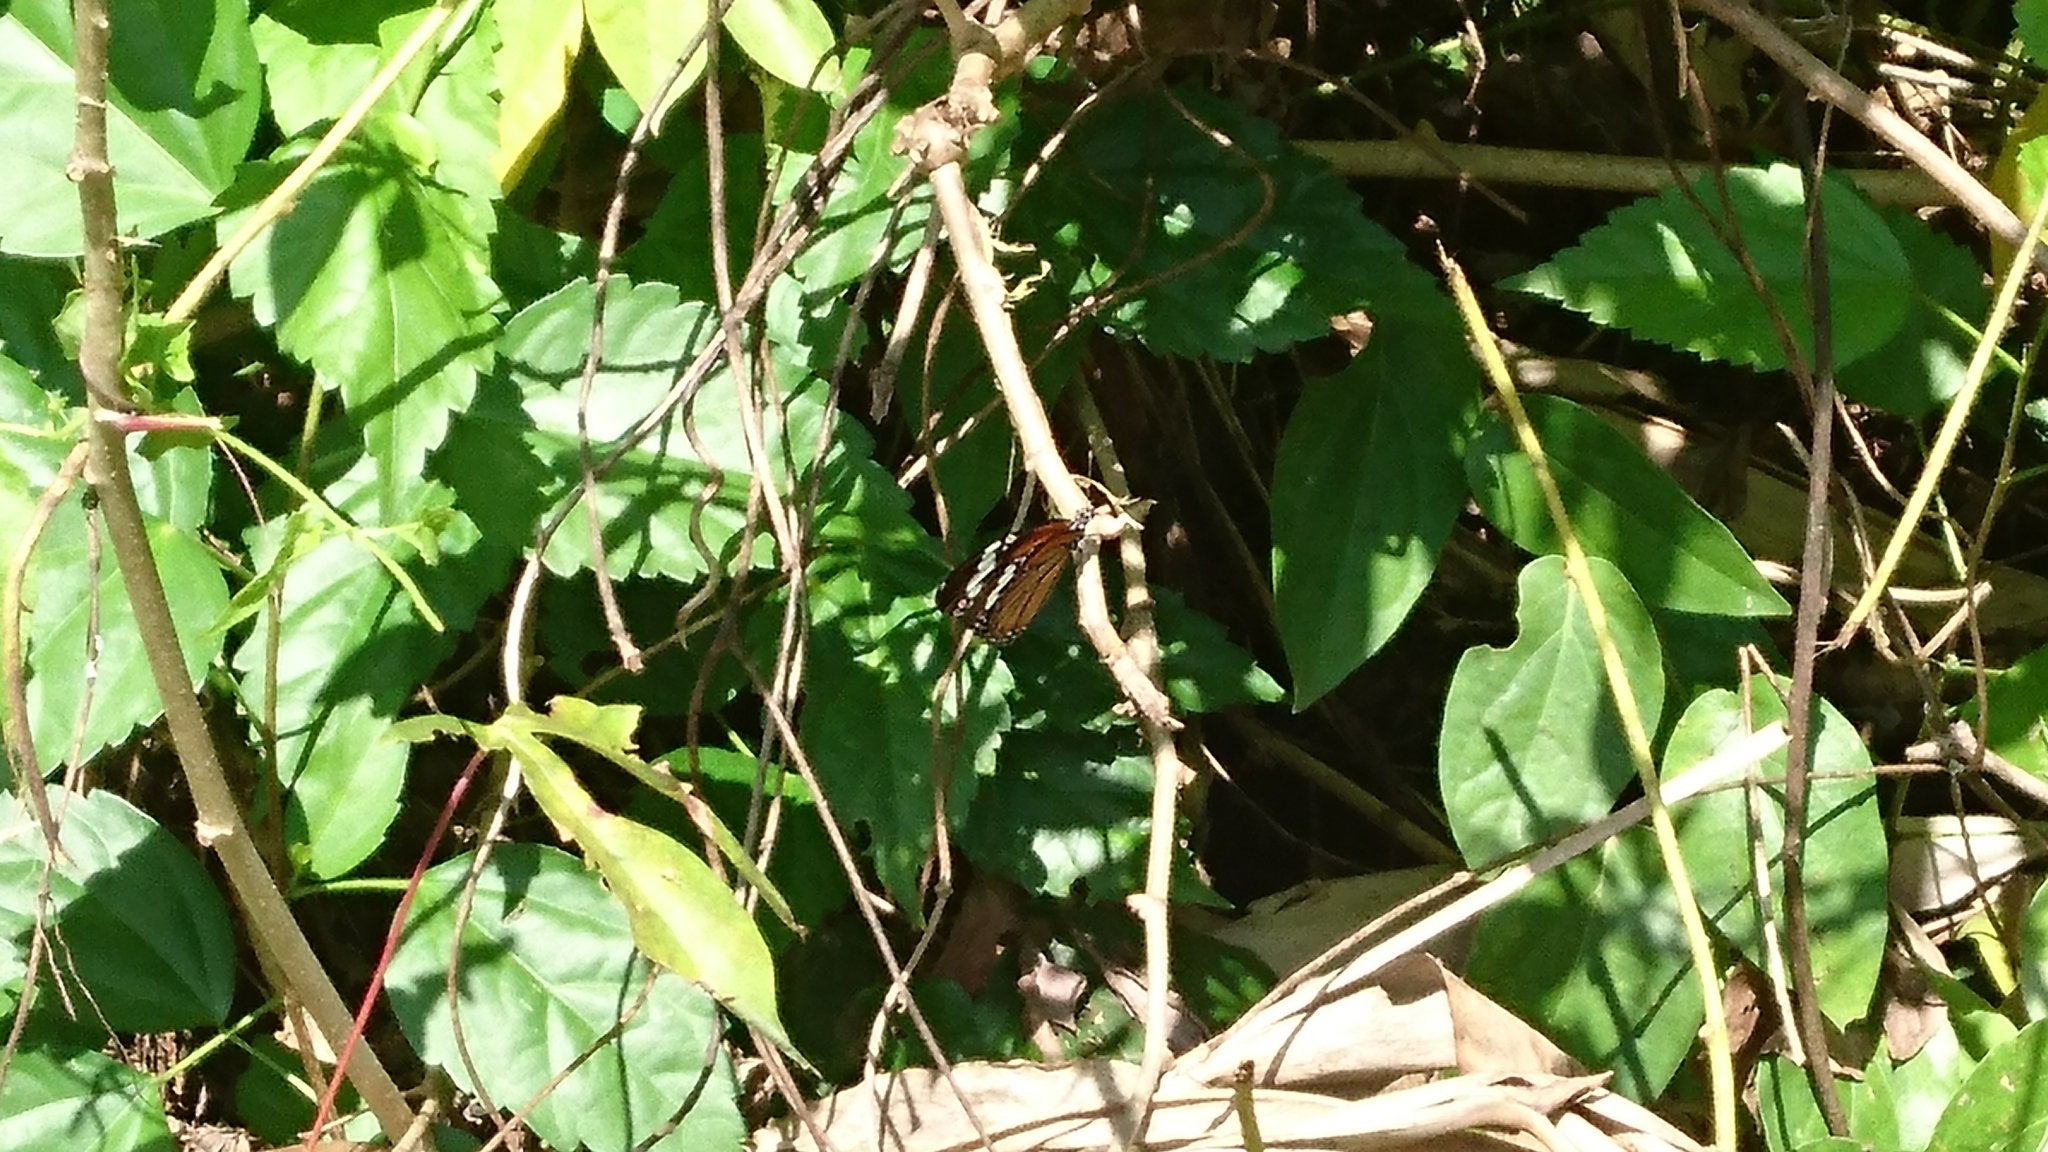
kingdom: Animalia
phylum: Arthropoda
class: Insecta
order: Lepidoptera
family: Nymphalidae
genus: Danaus
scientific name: Danaus genutia
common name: Common tiger butterfly
